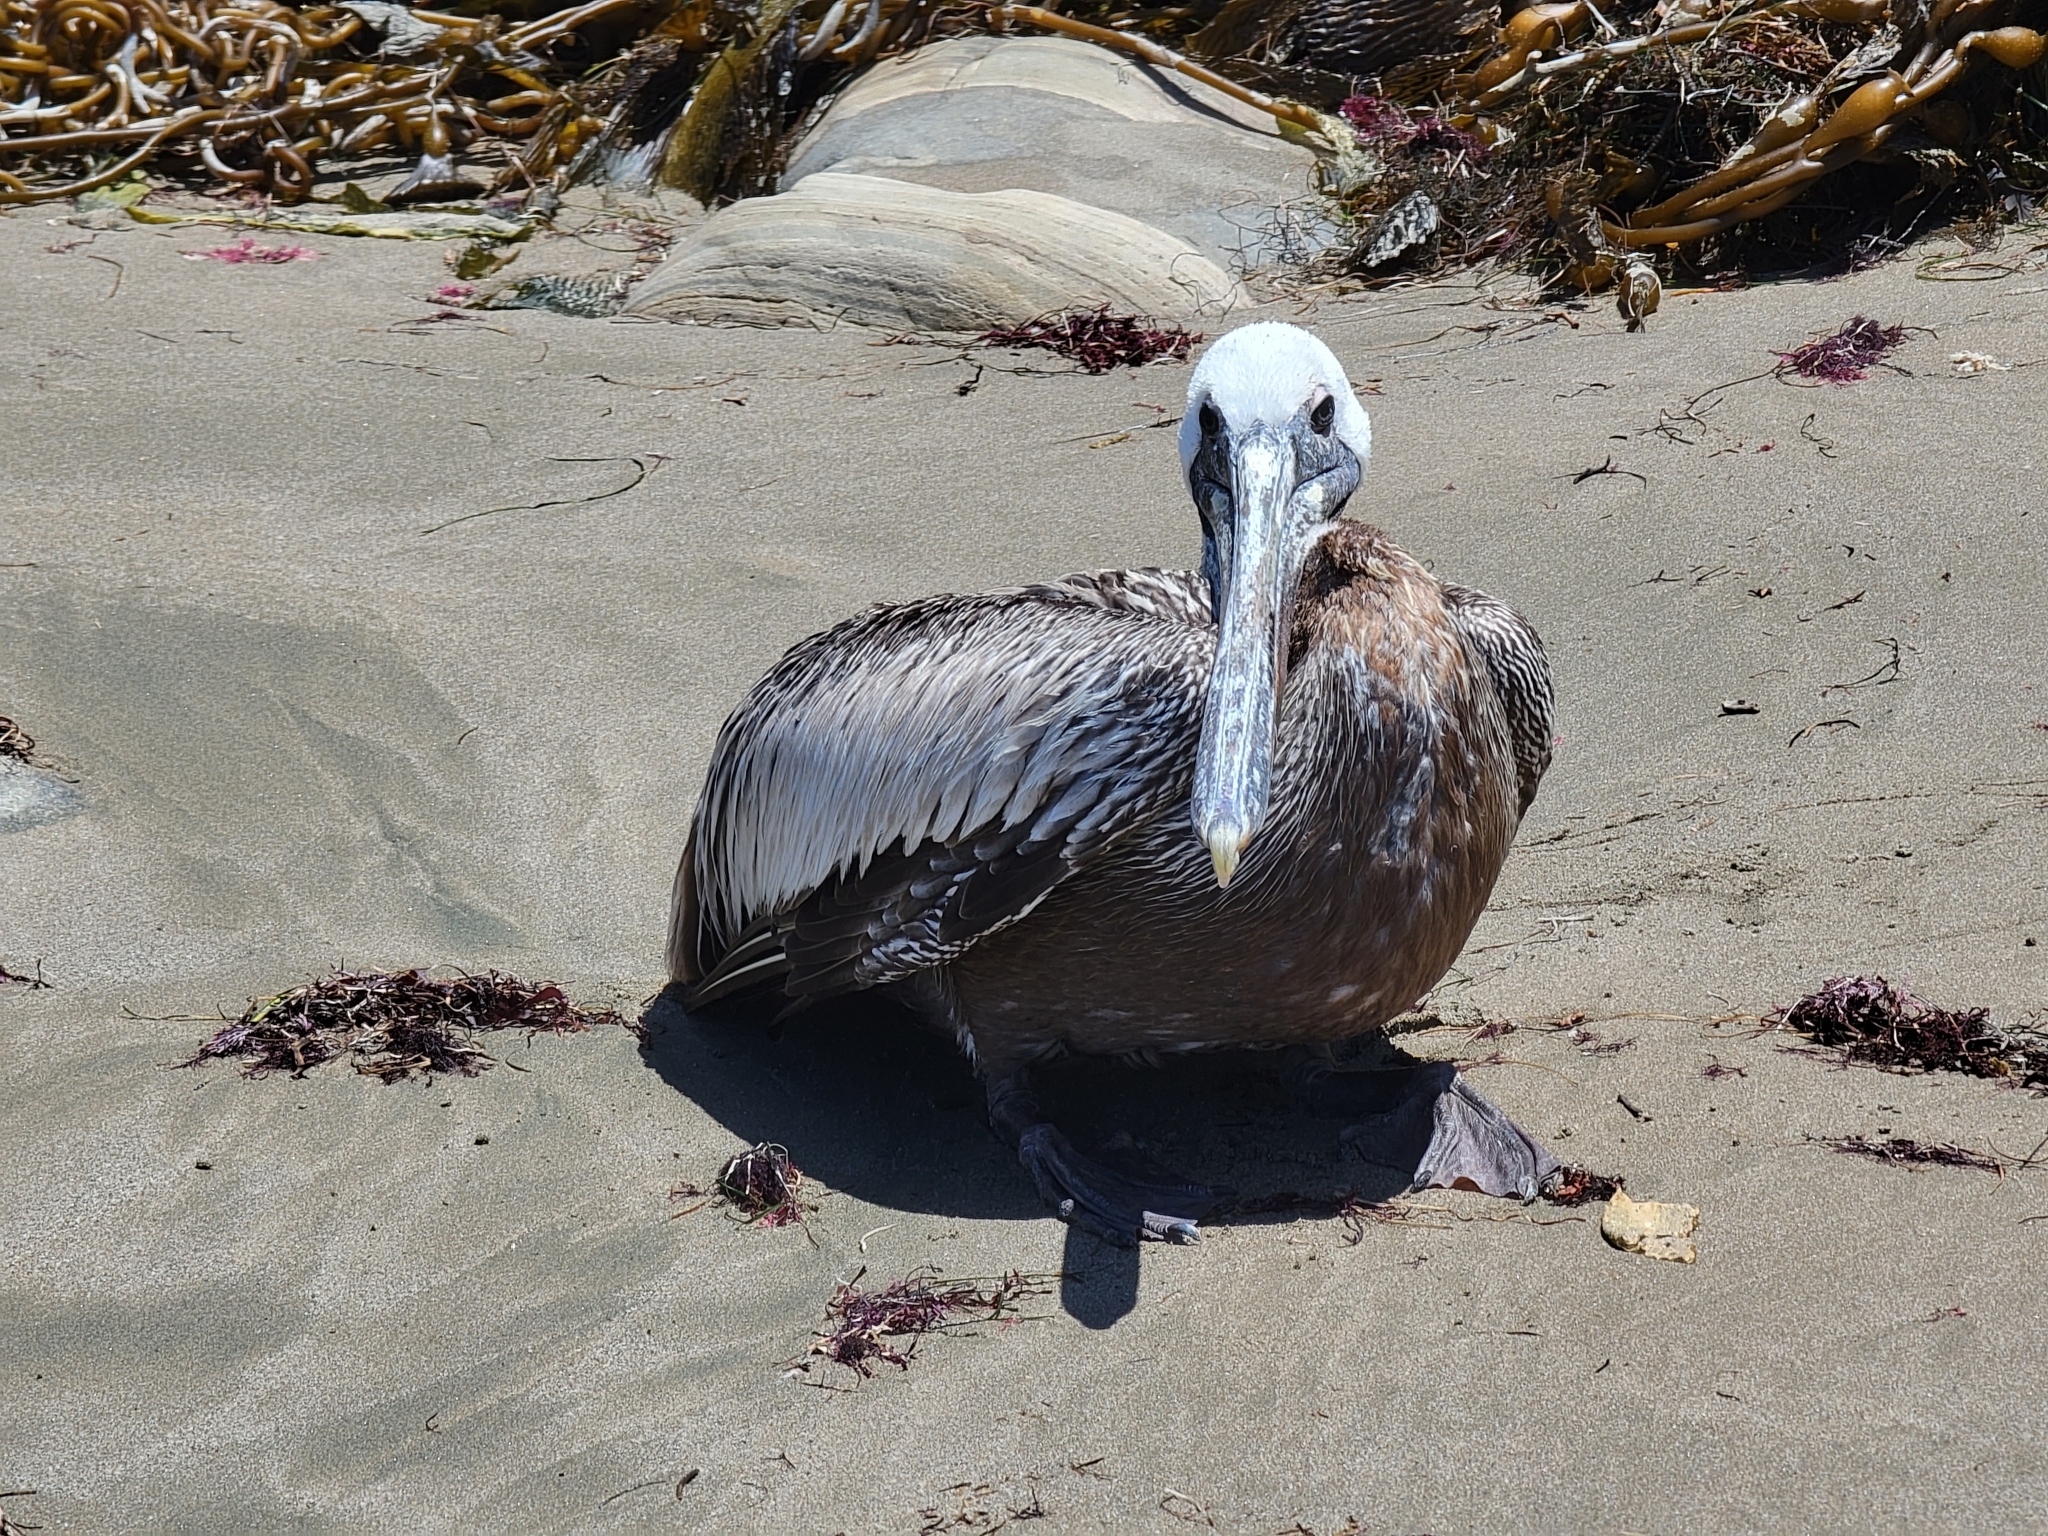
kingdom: Animalia
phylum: Chordata
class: Aves
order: Pelecaniformes
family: Pelecanidae
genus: Pelecanus
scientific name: Pelecanus occidentalis
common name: Brown pelican
